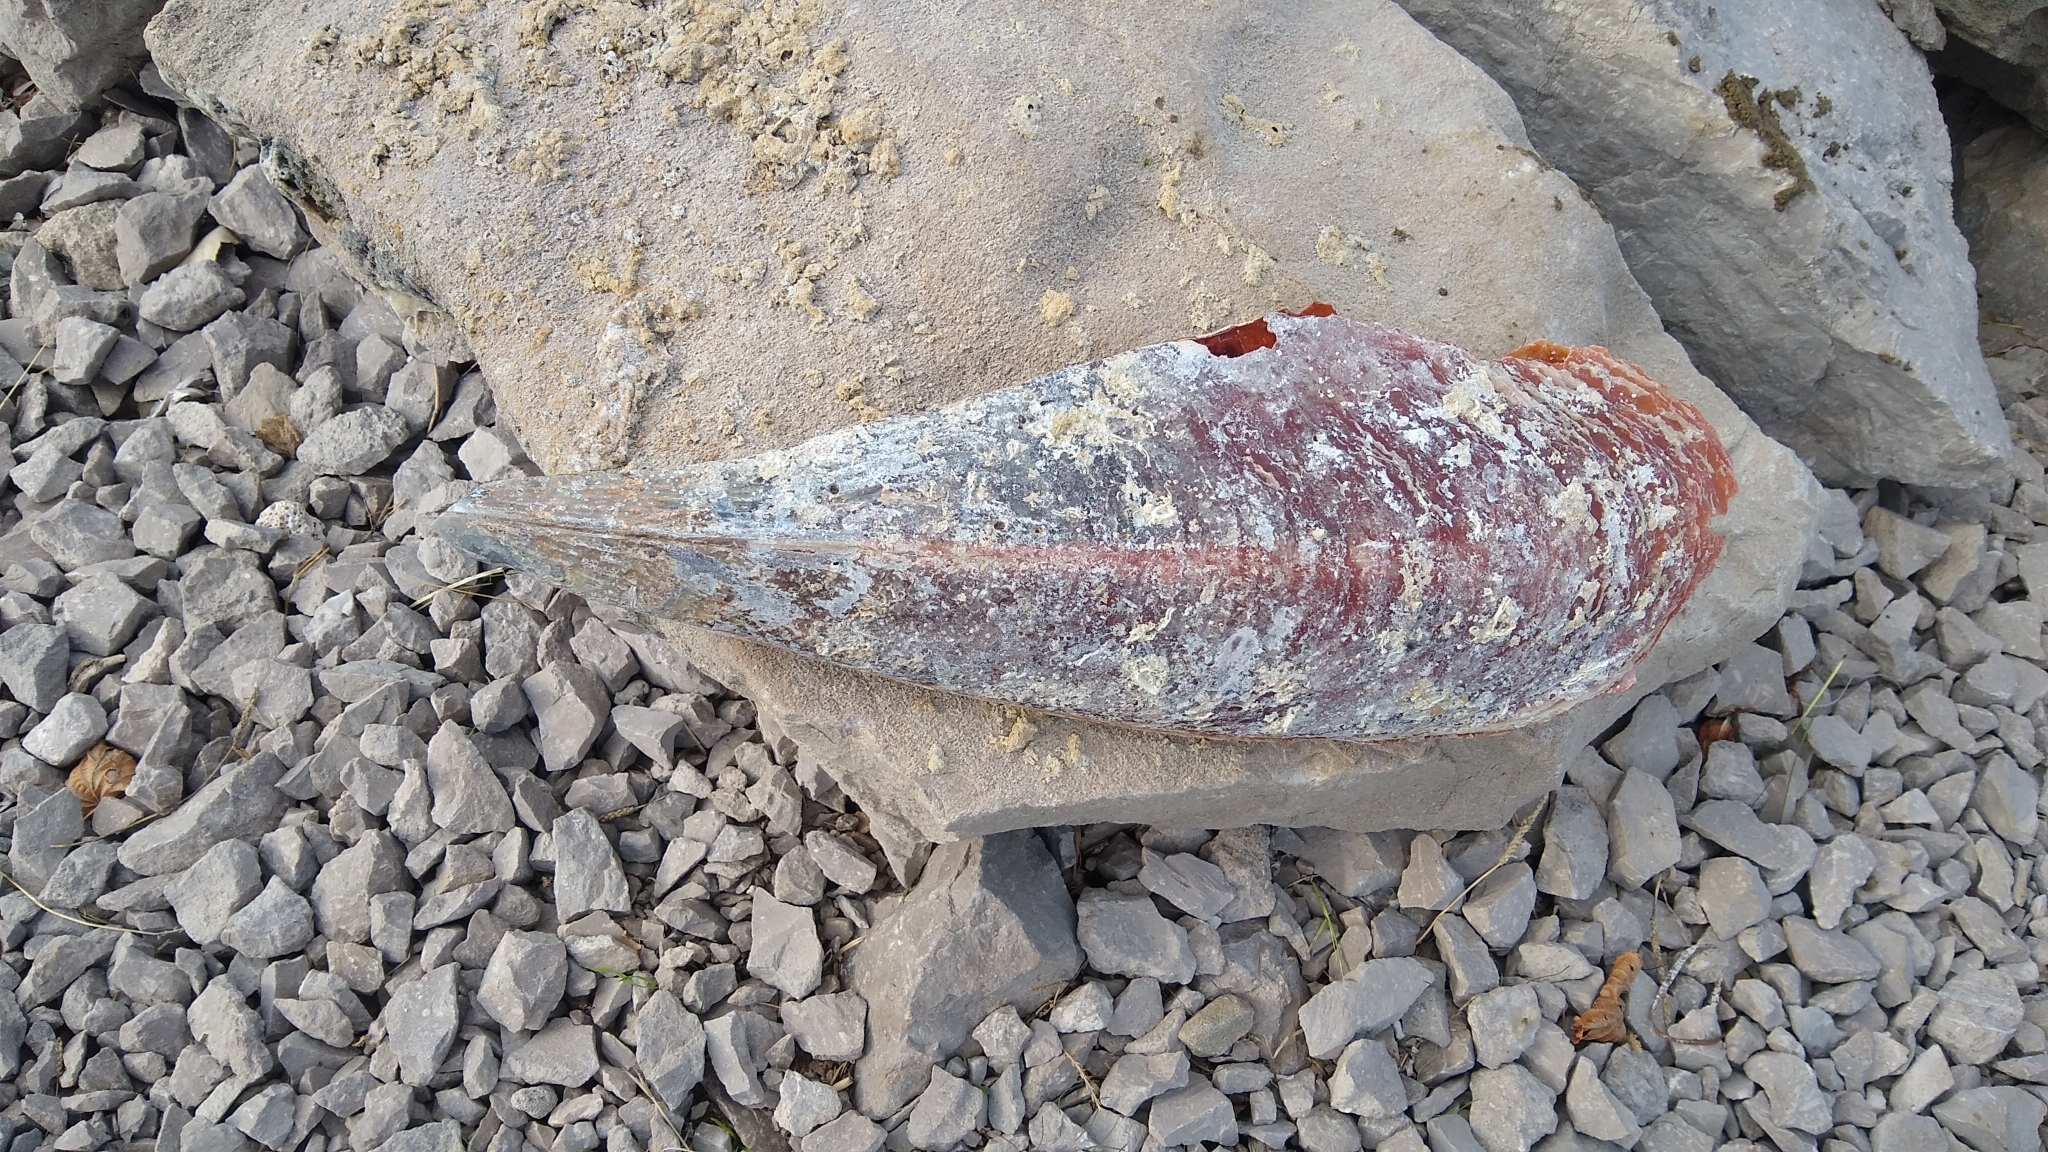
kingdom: Animalia
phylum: Mollusca
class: Bivalvia
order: Ostreida
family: Pinnidae
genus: Pinna
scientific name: Pinna nobilis
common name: Fan mussel
